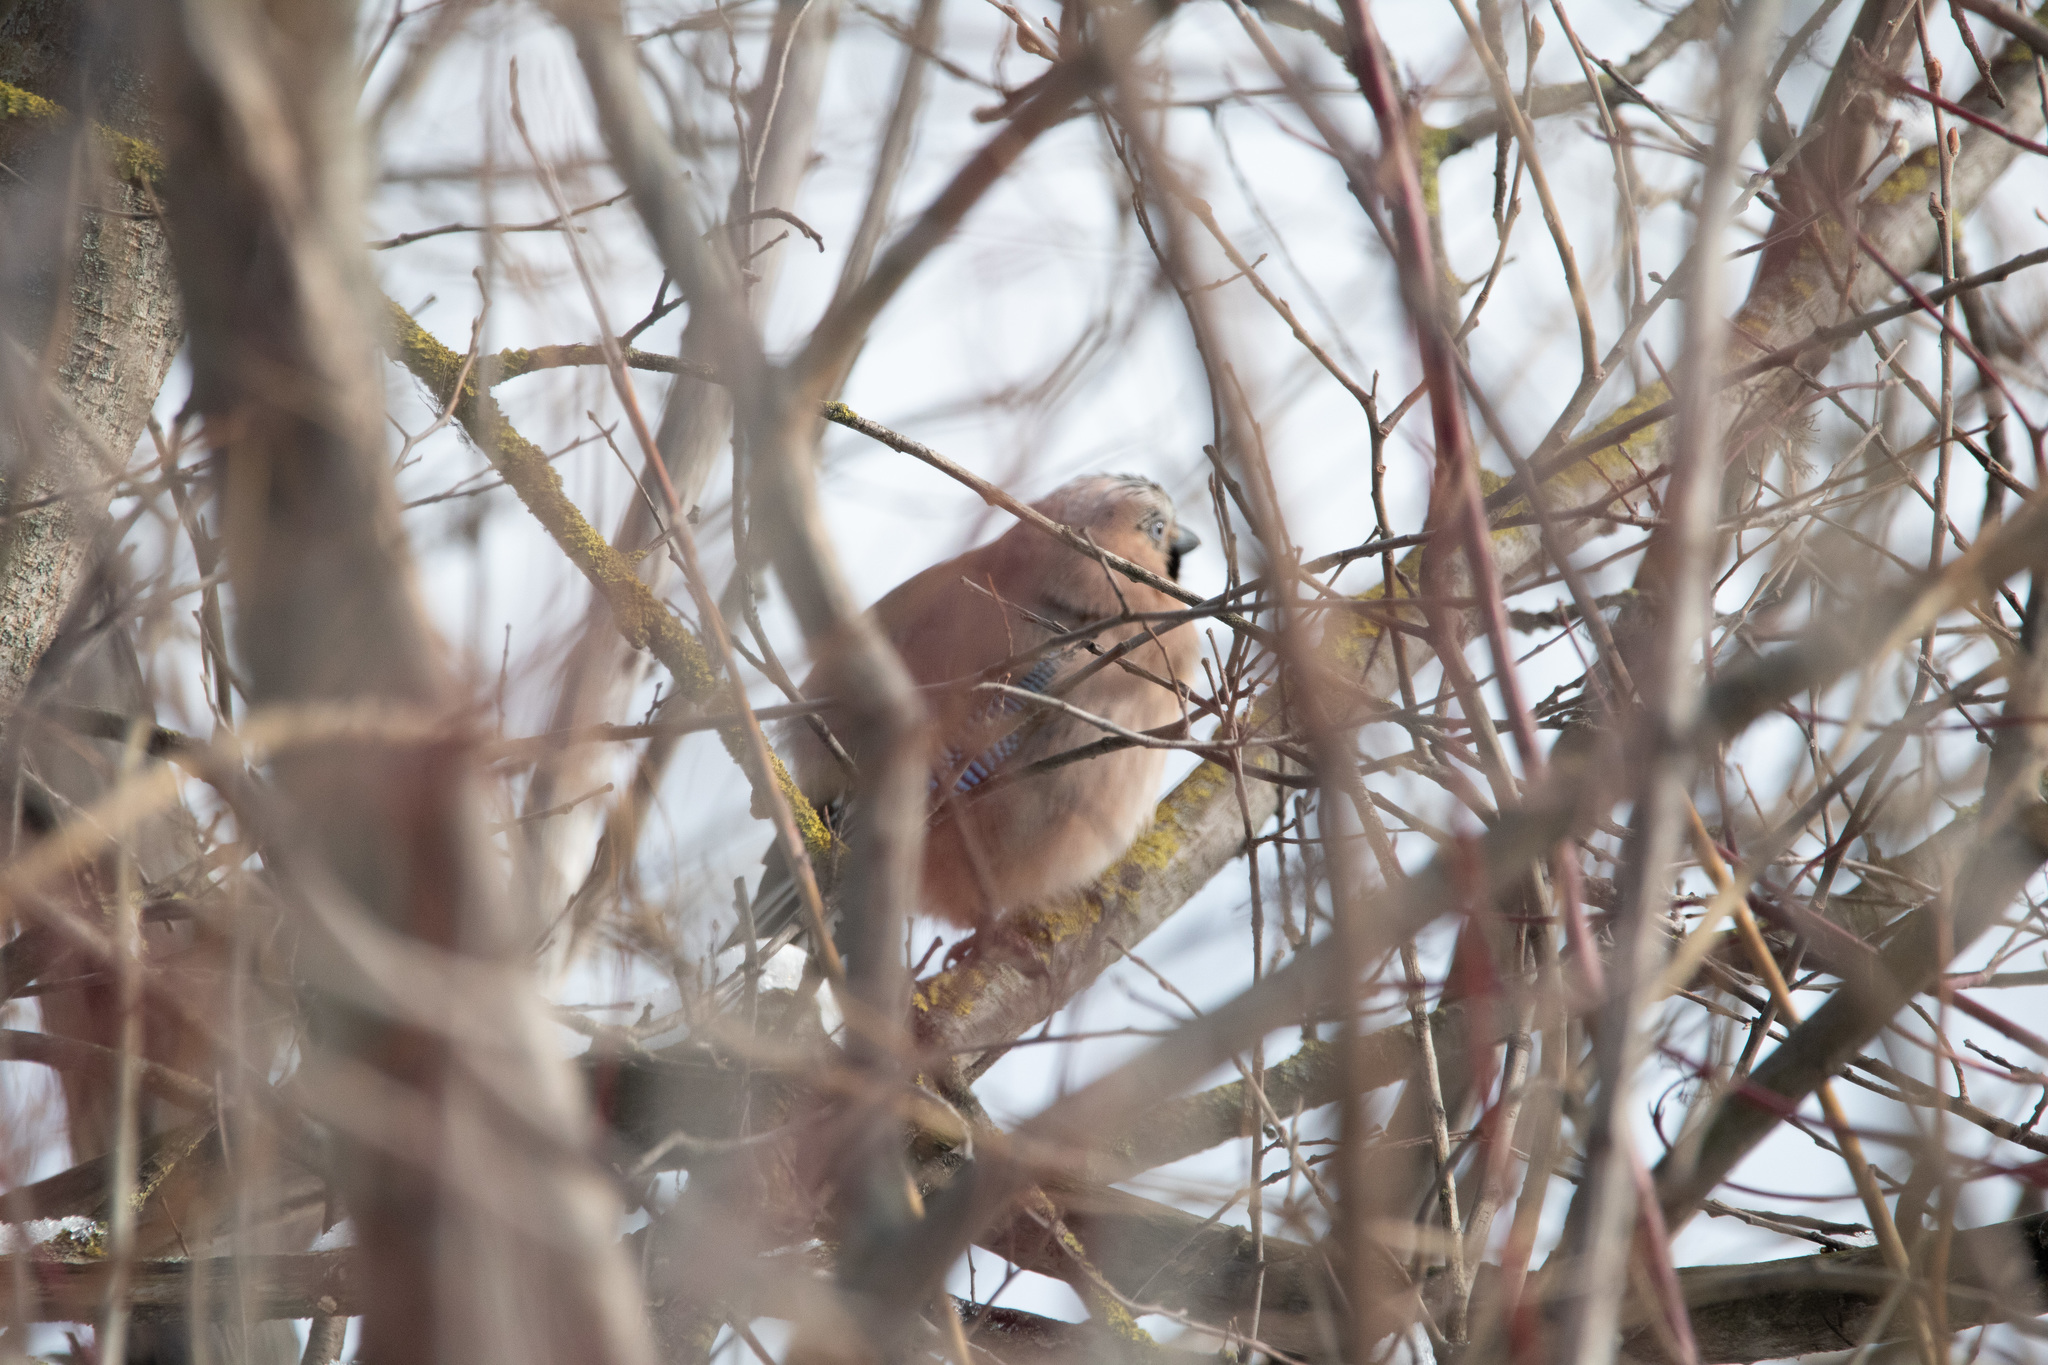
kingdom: Animalia
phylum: Chordata
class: Aves
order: Passeriformes
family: Corvidae
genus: Garrulus
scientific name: Garrulus glandarius
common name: Eurasian jay
